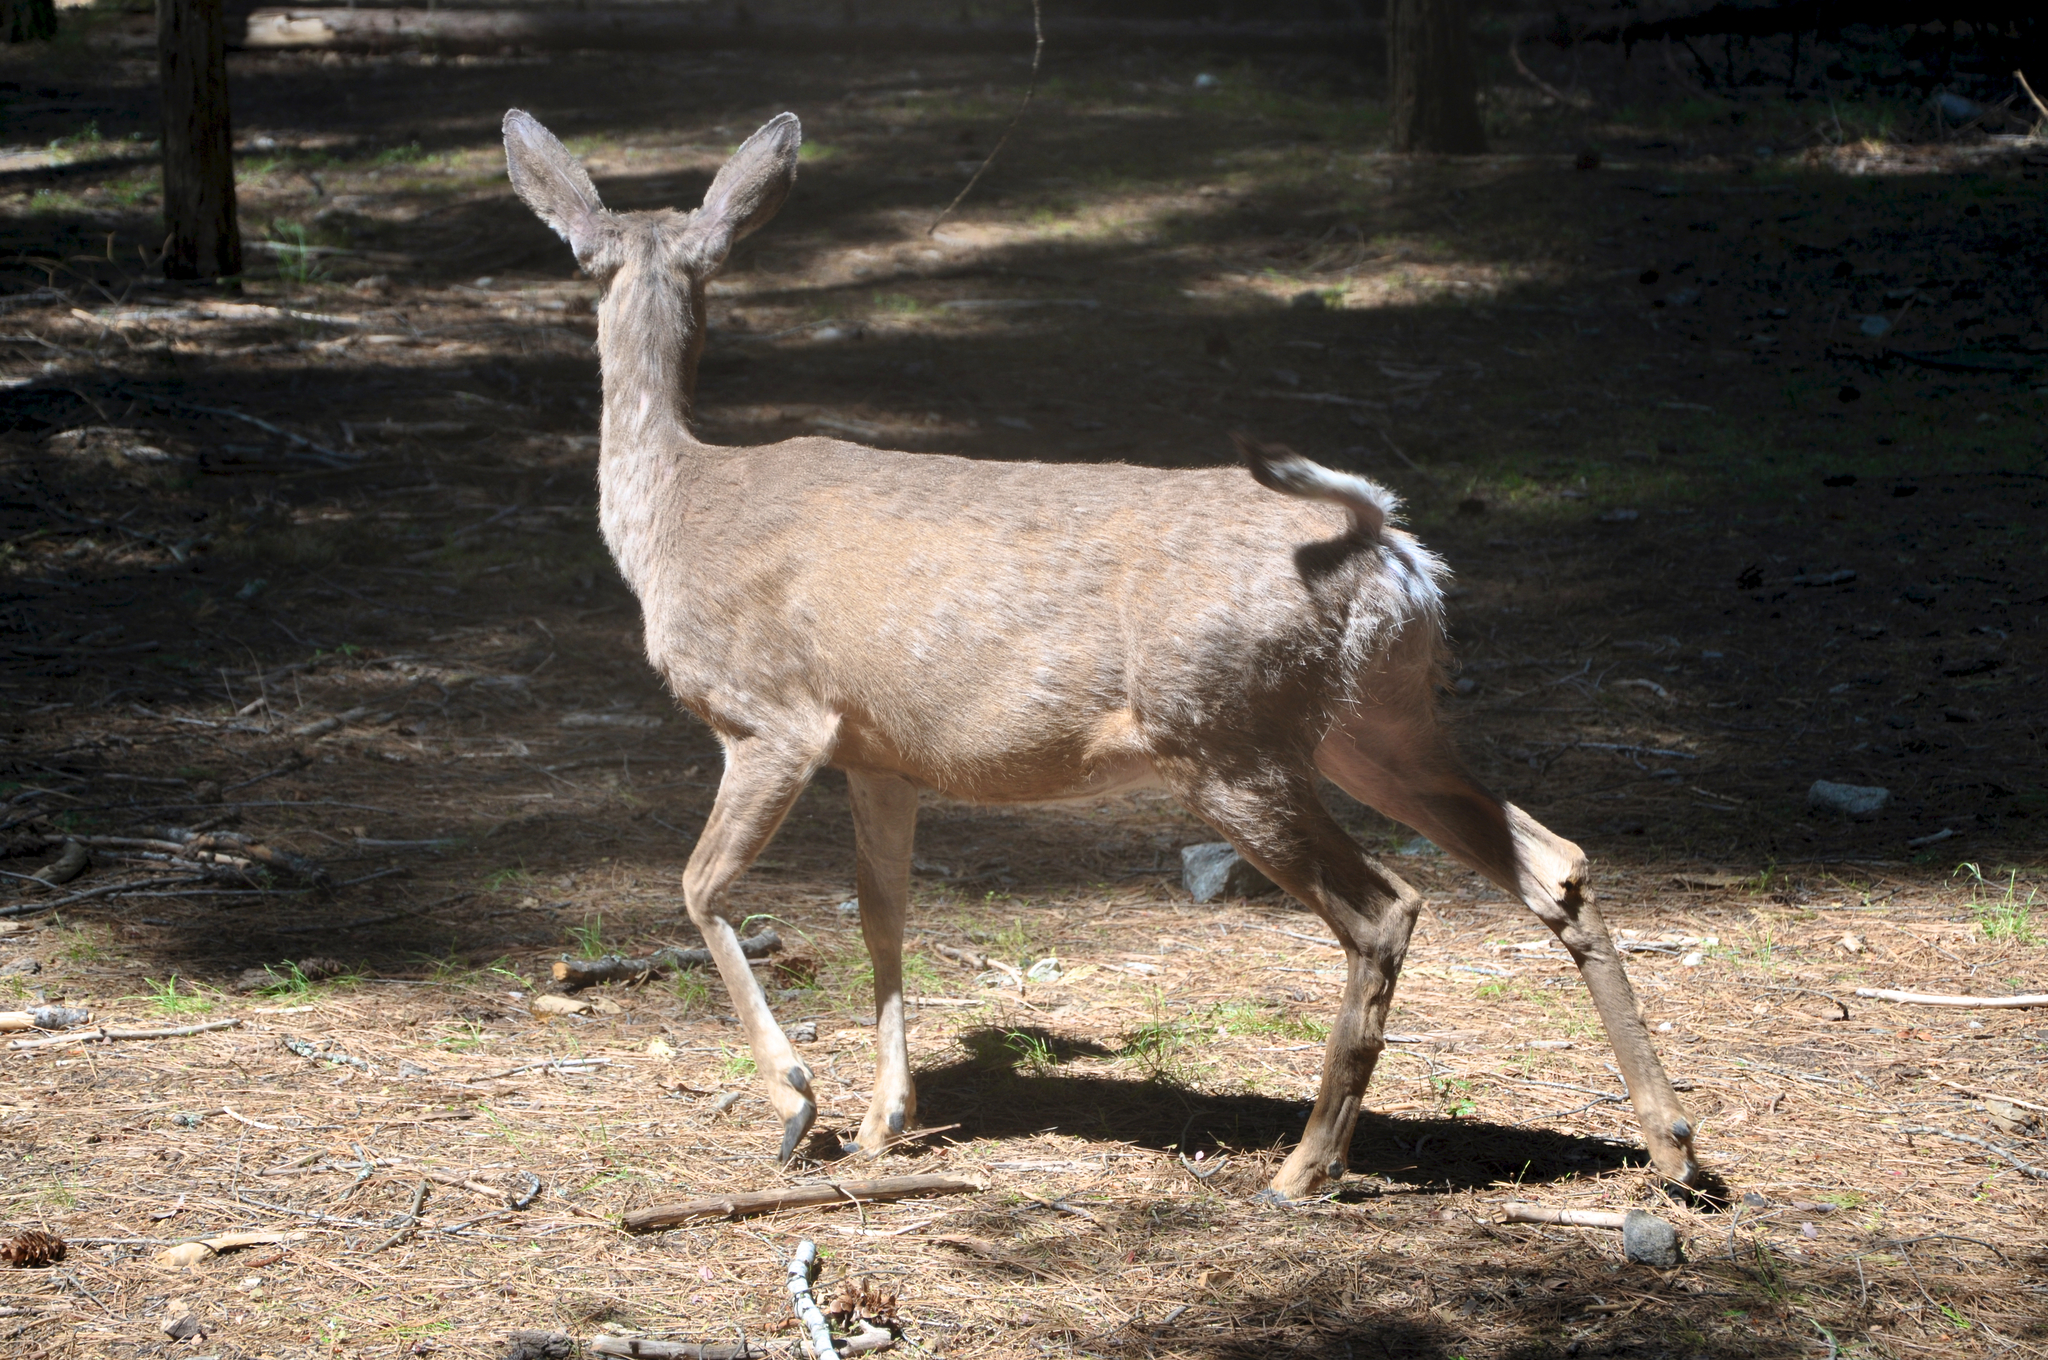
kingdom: Animalia
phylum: Chordata
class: Mammalia
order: Artiodactyla
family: Cervidae
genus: Odocoileus
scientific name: Odocoileus hemionus
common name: Mule deer
